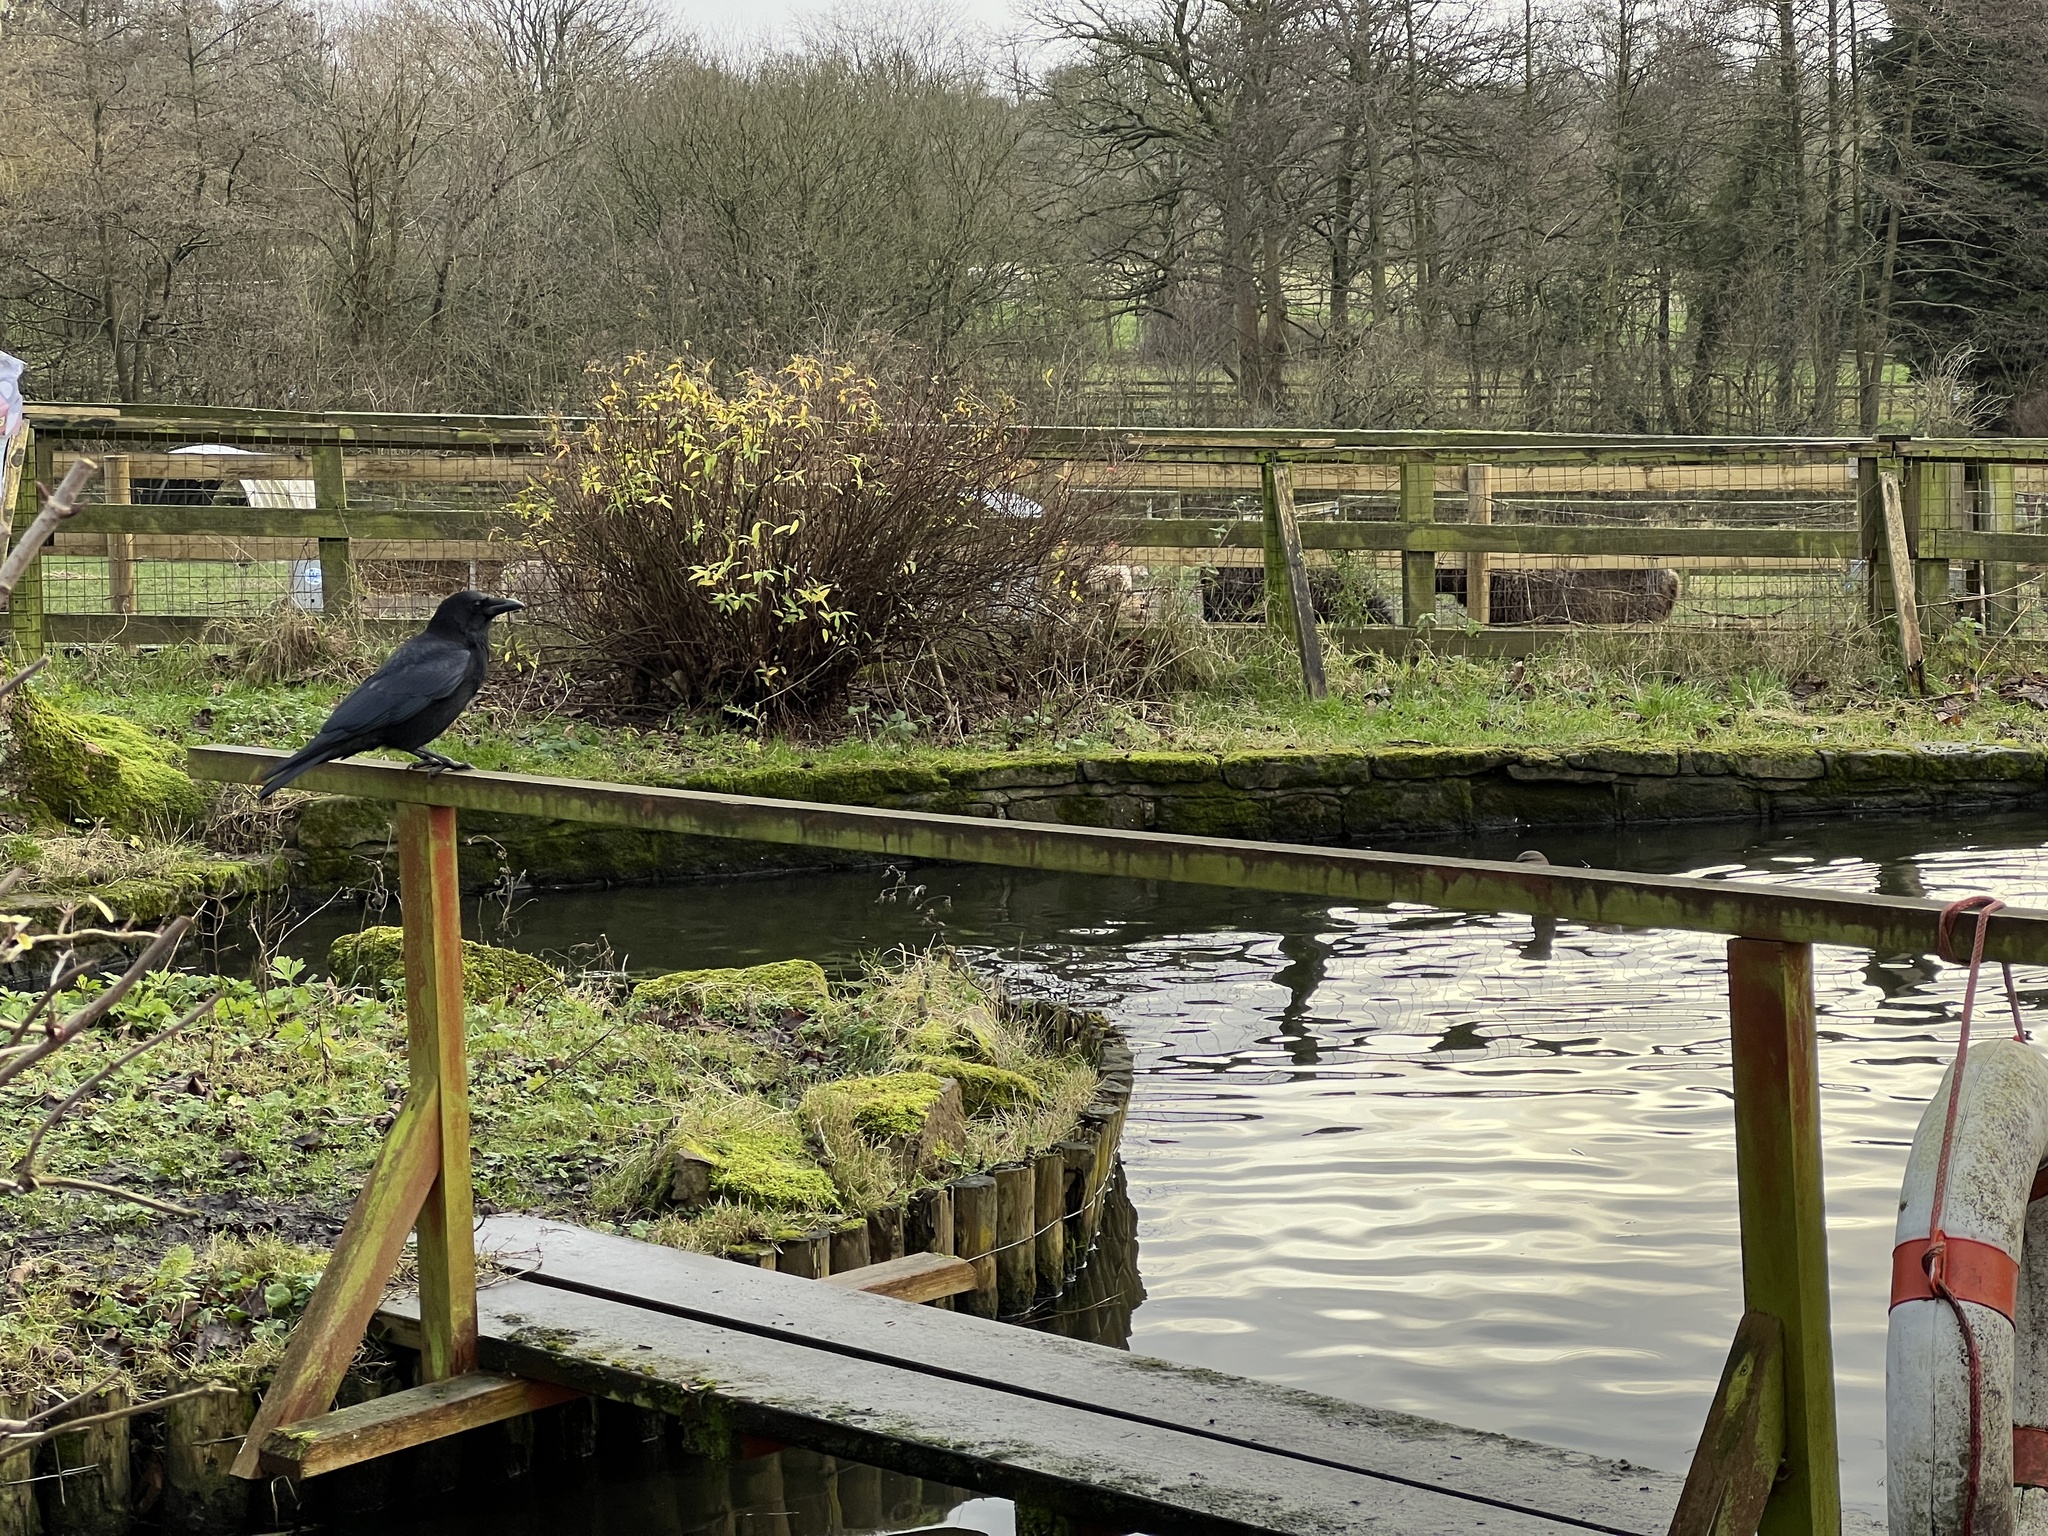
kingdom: Animalia
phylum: Chordata
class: Aves
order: Passeriformes
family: Corvidae
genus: Corvus
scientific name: Corvus corone
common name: Carrion crow
